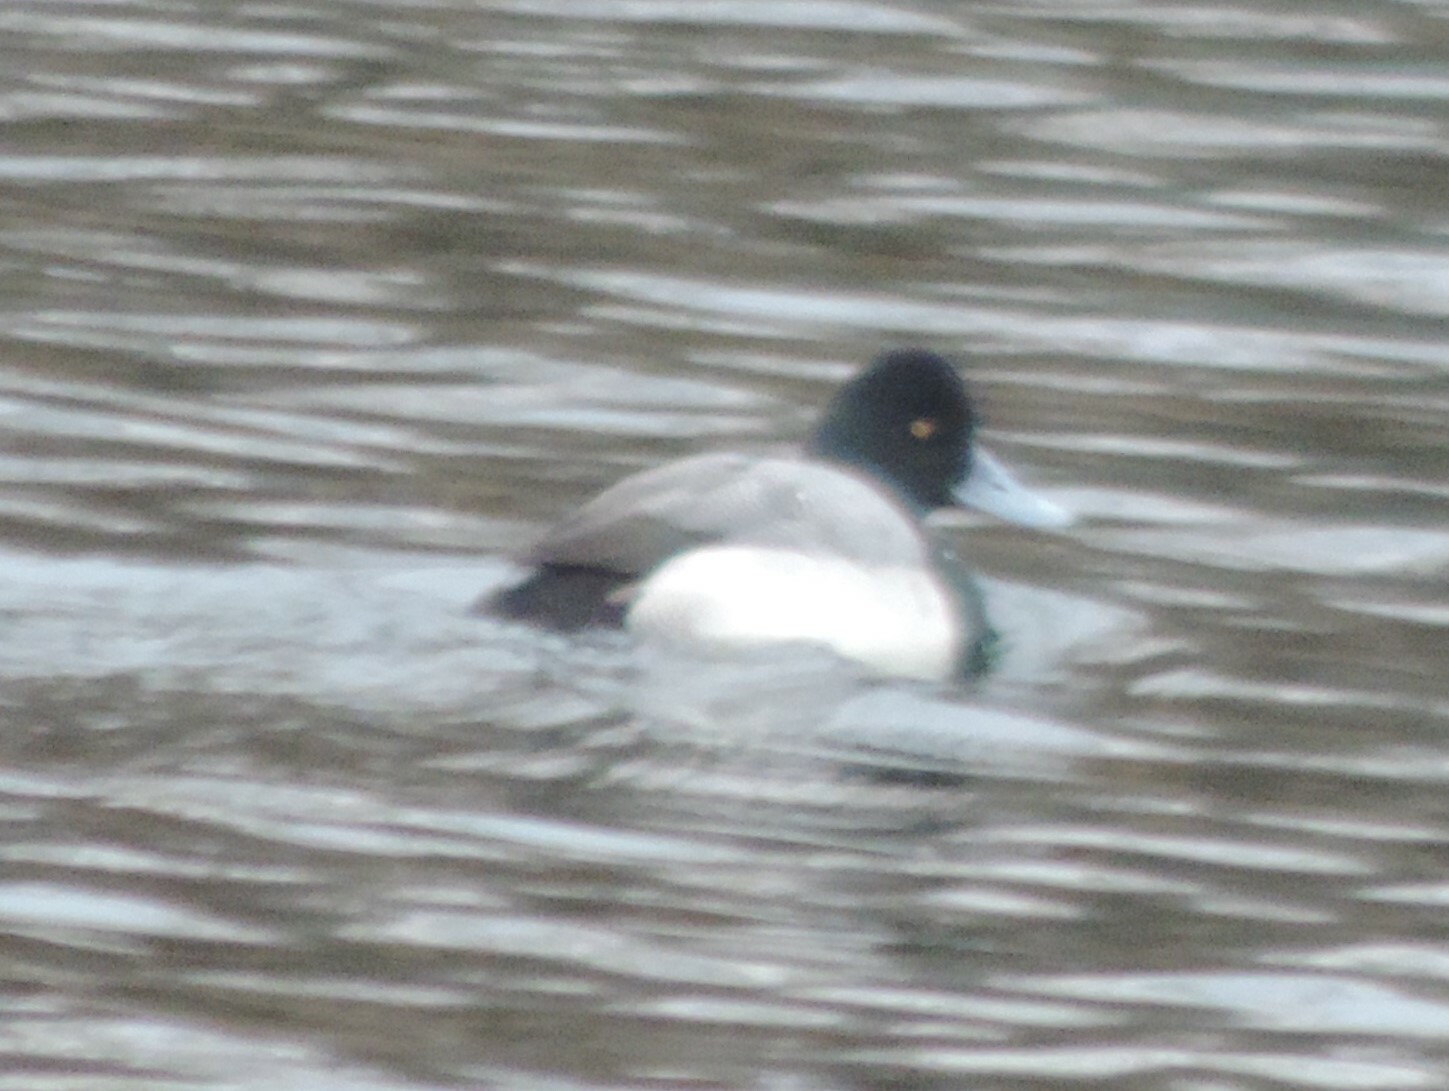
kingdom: Animalia
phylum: Chordata
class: Aves
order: Anseriformes
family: Anatidae
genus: Aythya
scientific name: Aythya marila
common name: Greater scaup
